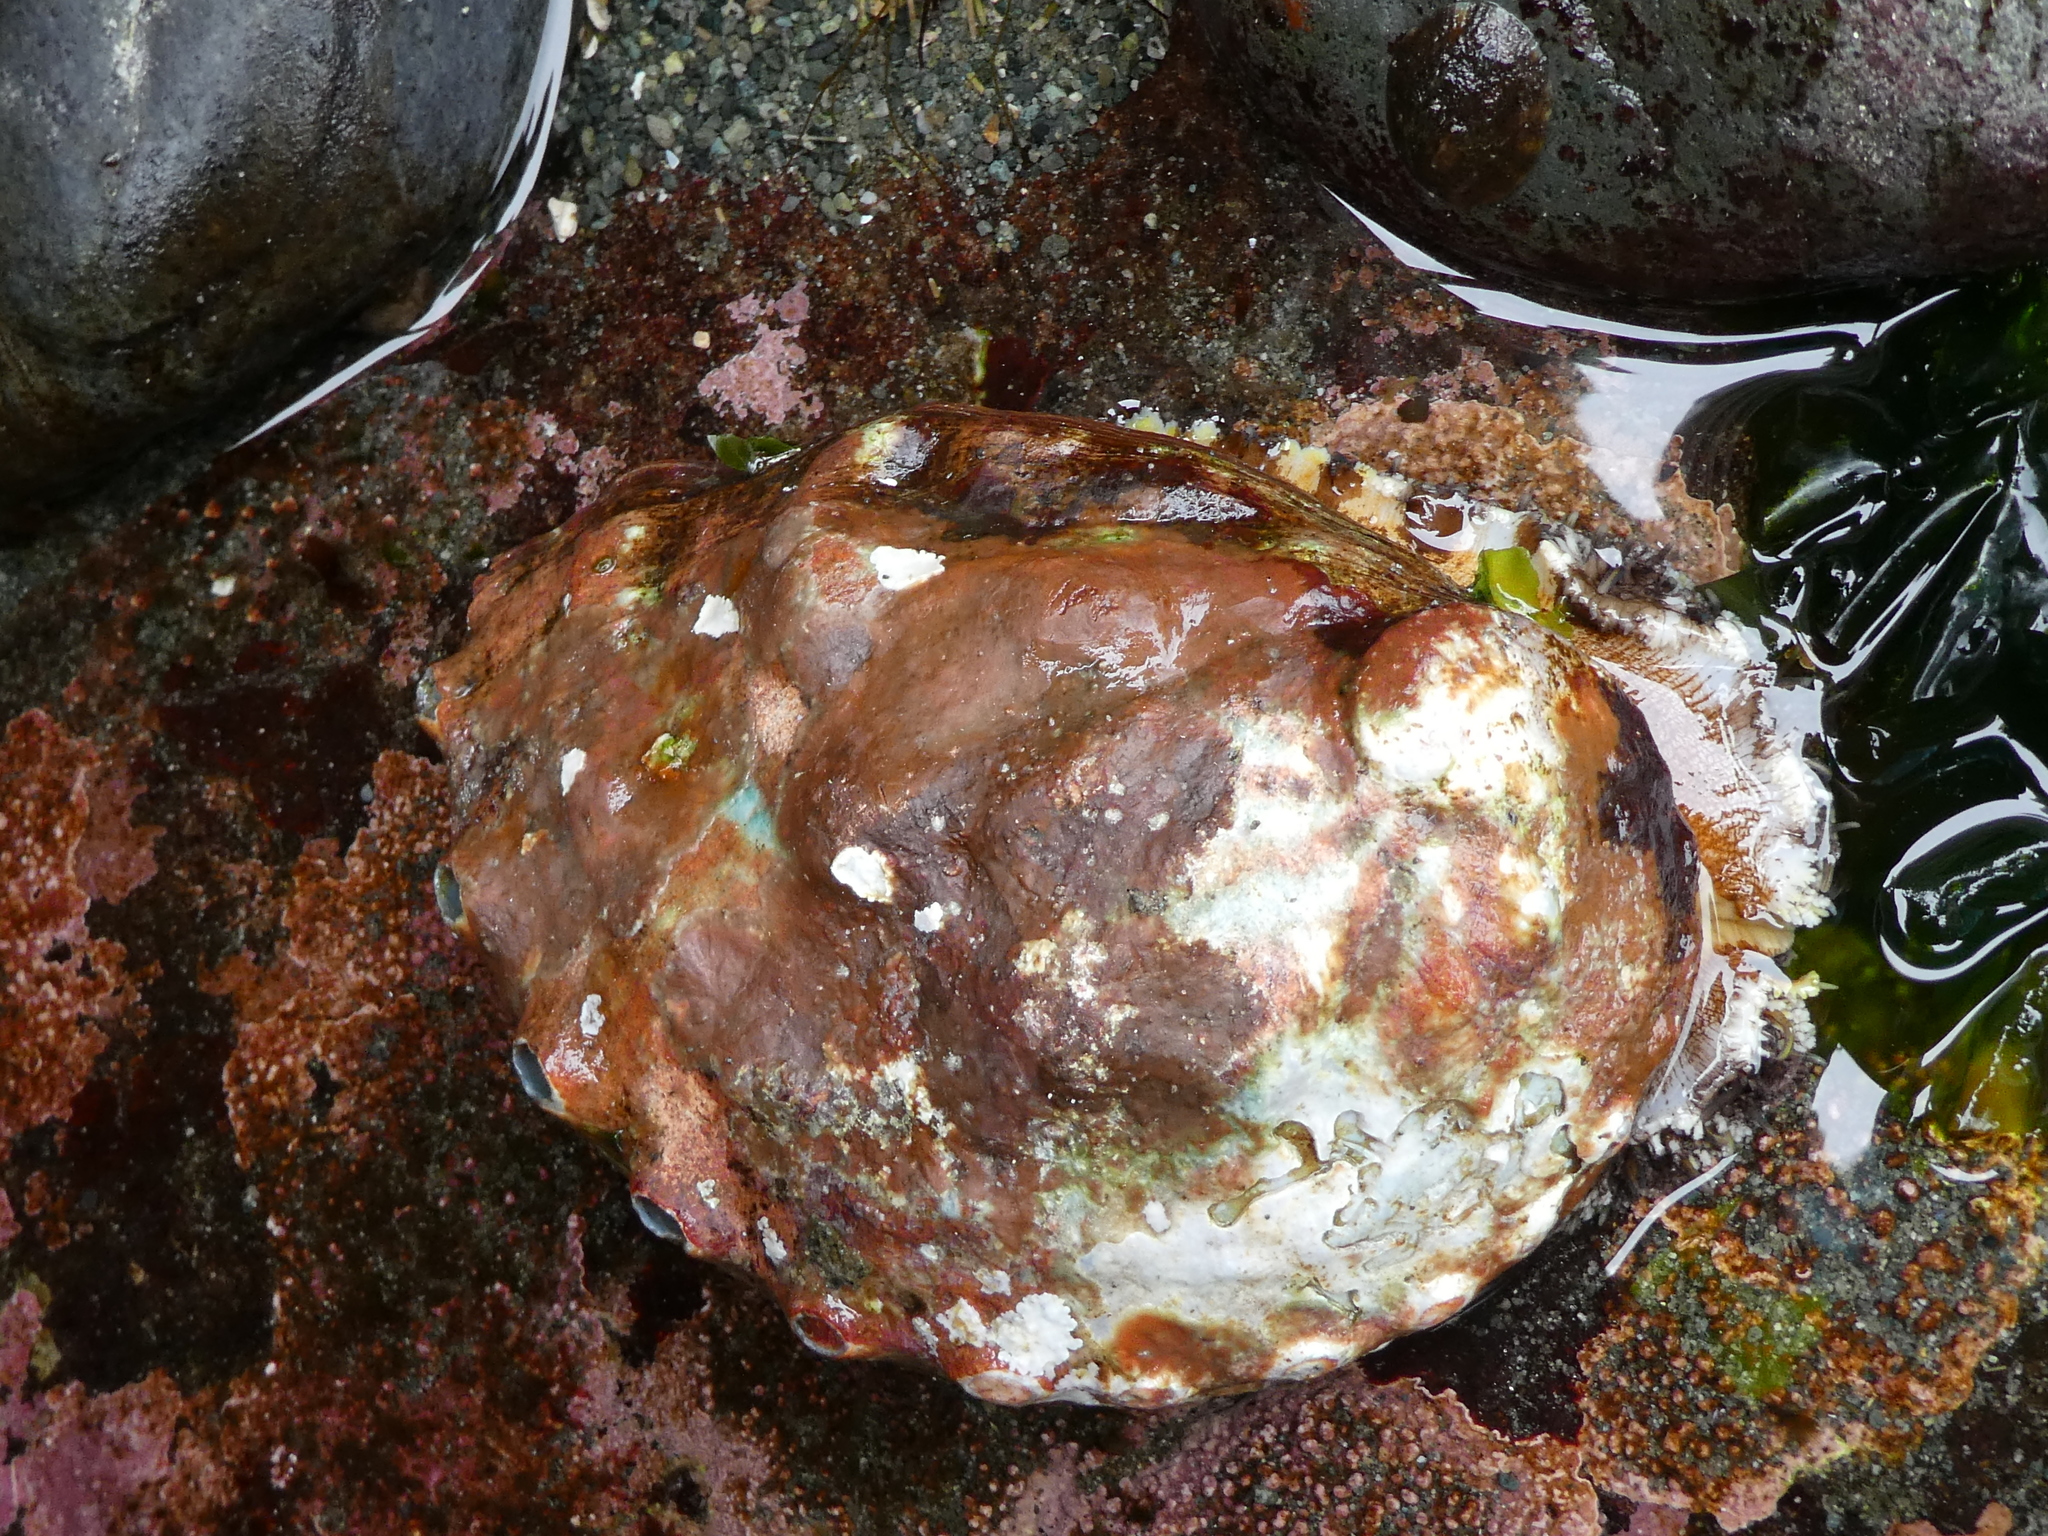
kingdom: Animalia
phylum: Mollusca
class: Gastropoda
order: Lepetellida
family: Haliotidae
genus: Haliotis
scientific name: Haliotis kamtschatkana
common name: Pinto abalone
